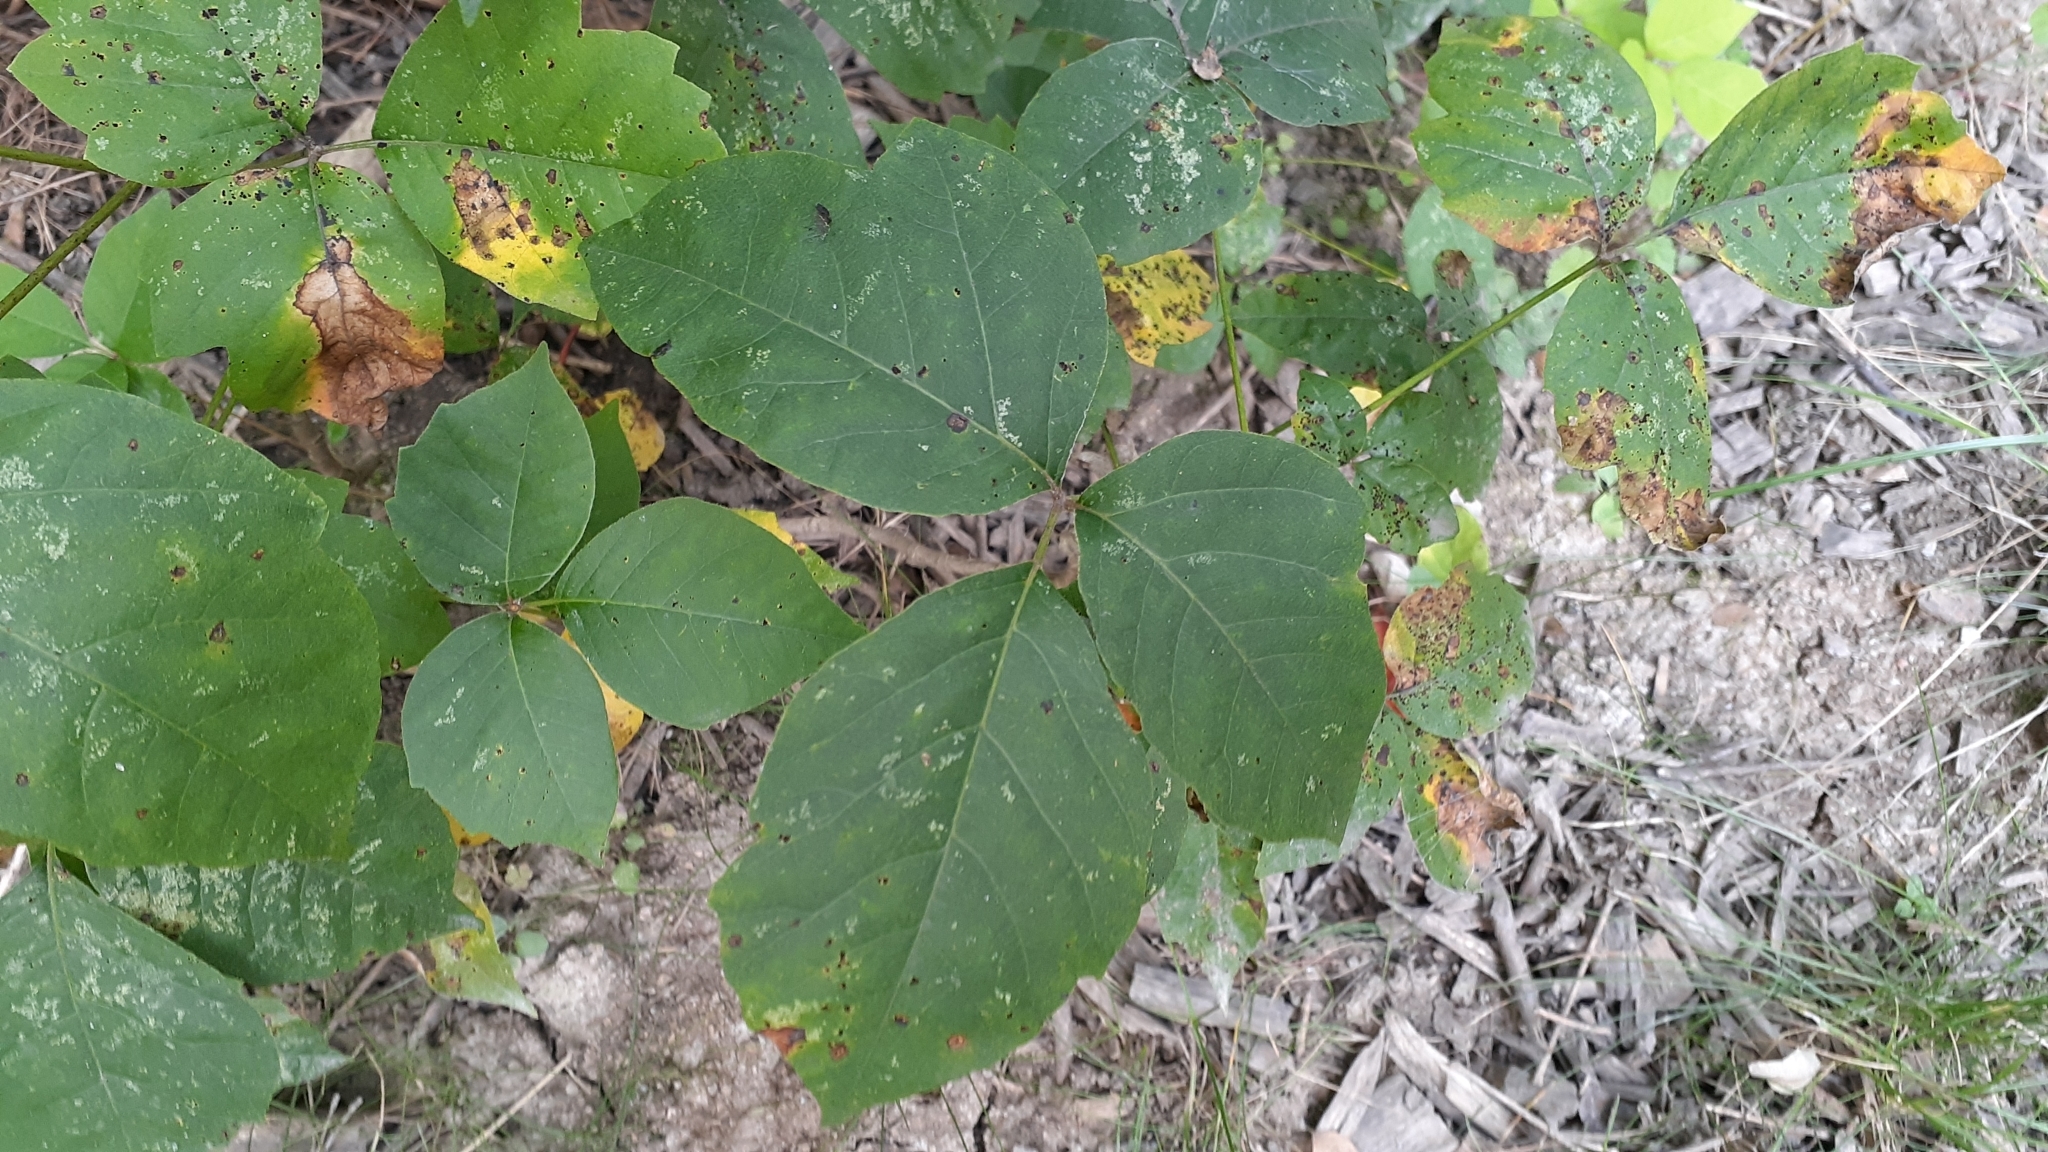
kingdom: Plantae
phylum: Tracheophyta
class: Magnoliopsida
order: Sapindales
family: Anacardiaceae
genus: Toxicodendron
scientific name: Toxicodendron rydbergii
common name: Rydberg's poison-ivy
